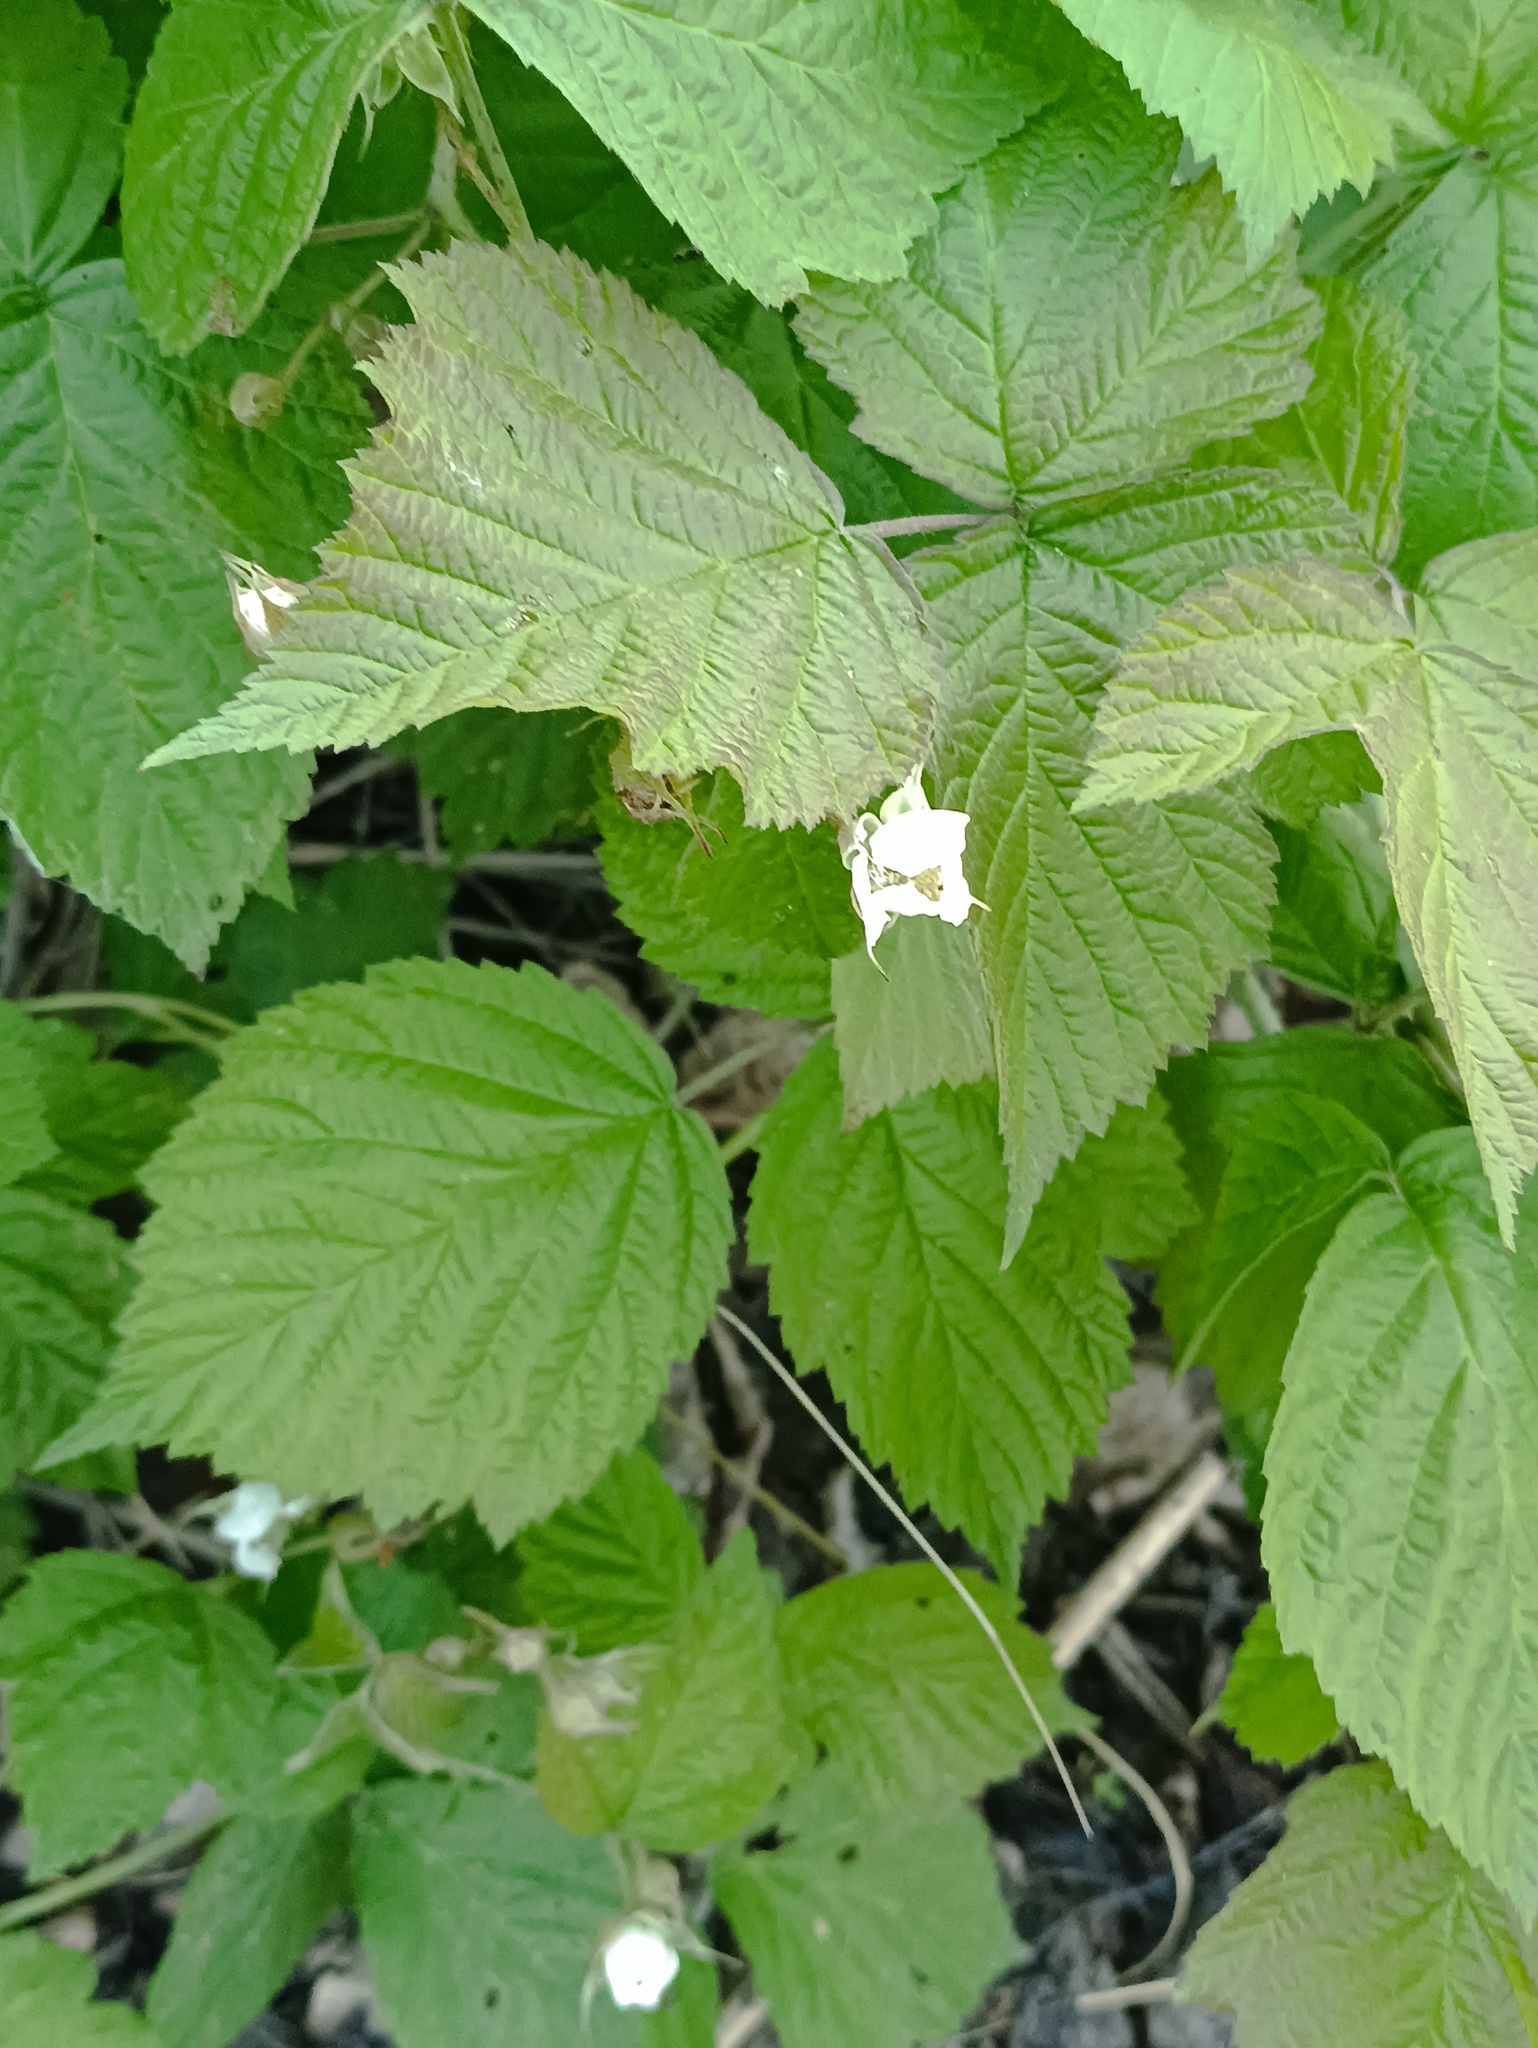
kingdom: Plantae
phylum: Tracheophyta
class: Magnoliopsida
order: Rosales
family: Rosaceae
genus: Rubus
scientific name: Rubus caesius
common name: Dewberry
